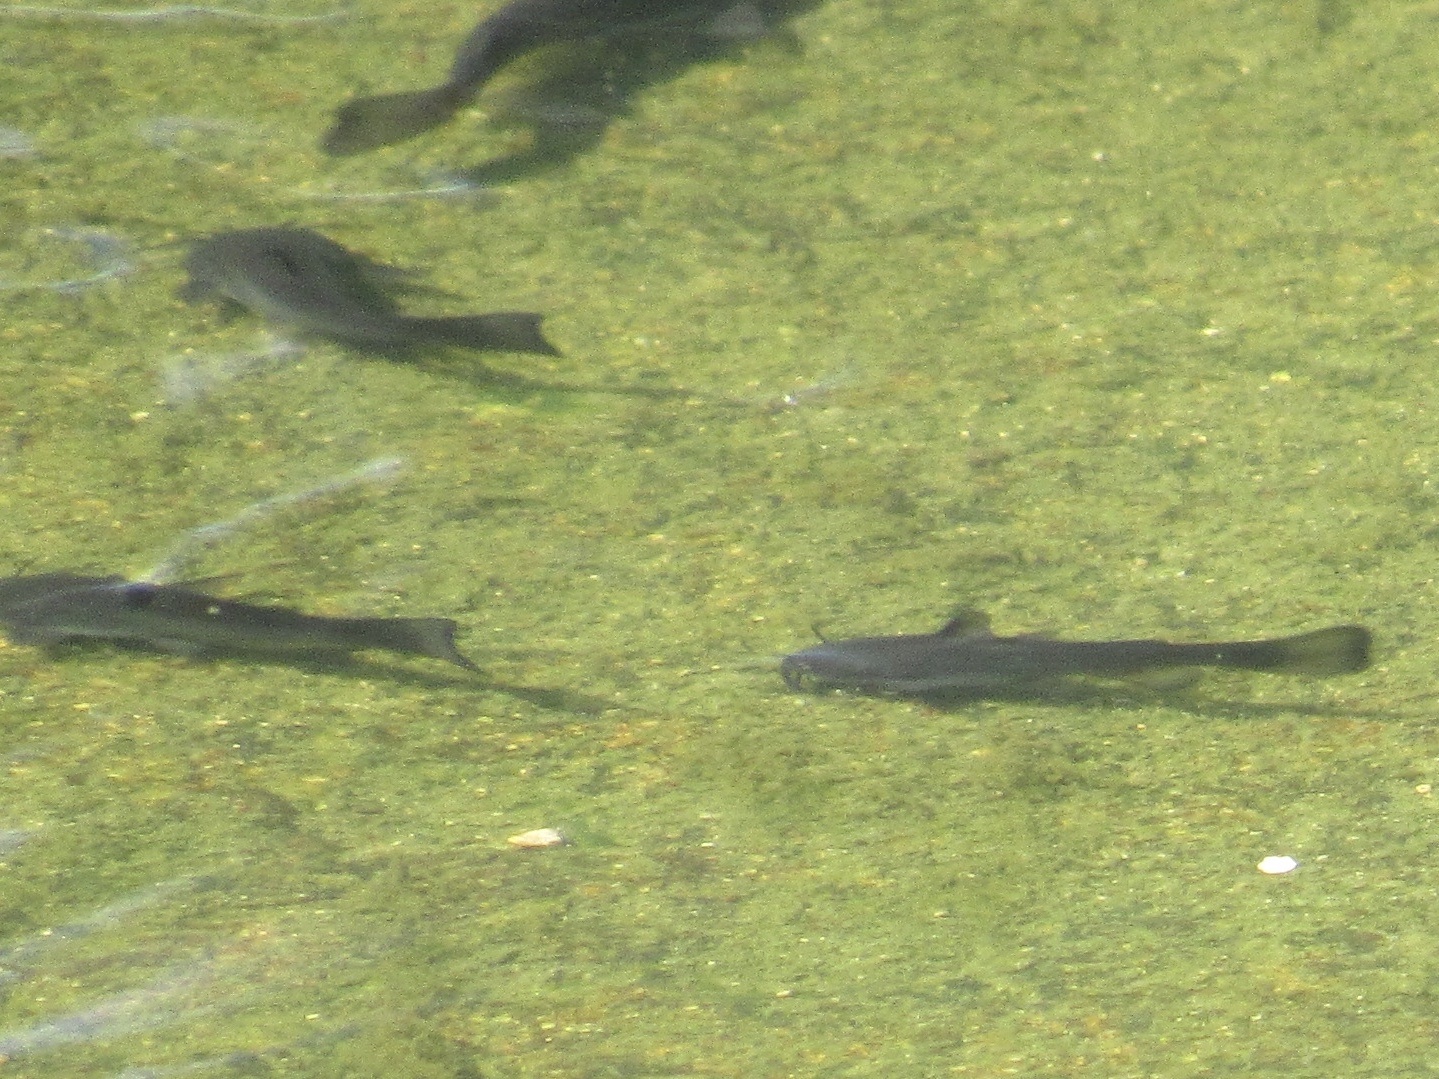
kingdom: Animalia
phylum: Chordata
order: Siluriformes
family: Ictaluridae
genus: Ameiurus
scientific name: Ameiurus melas
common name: Black bullhead
